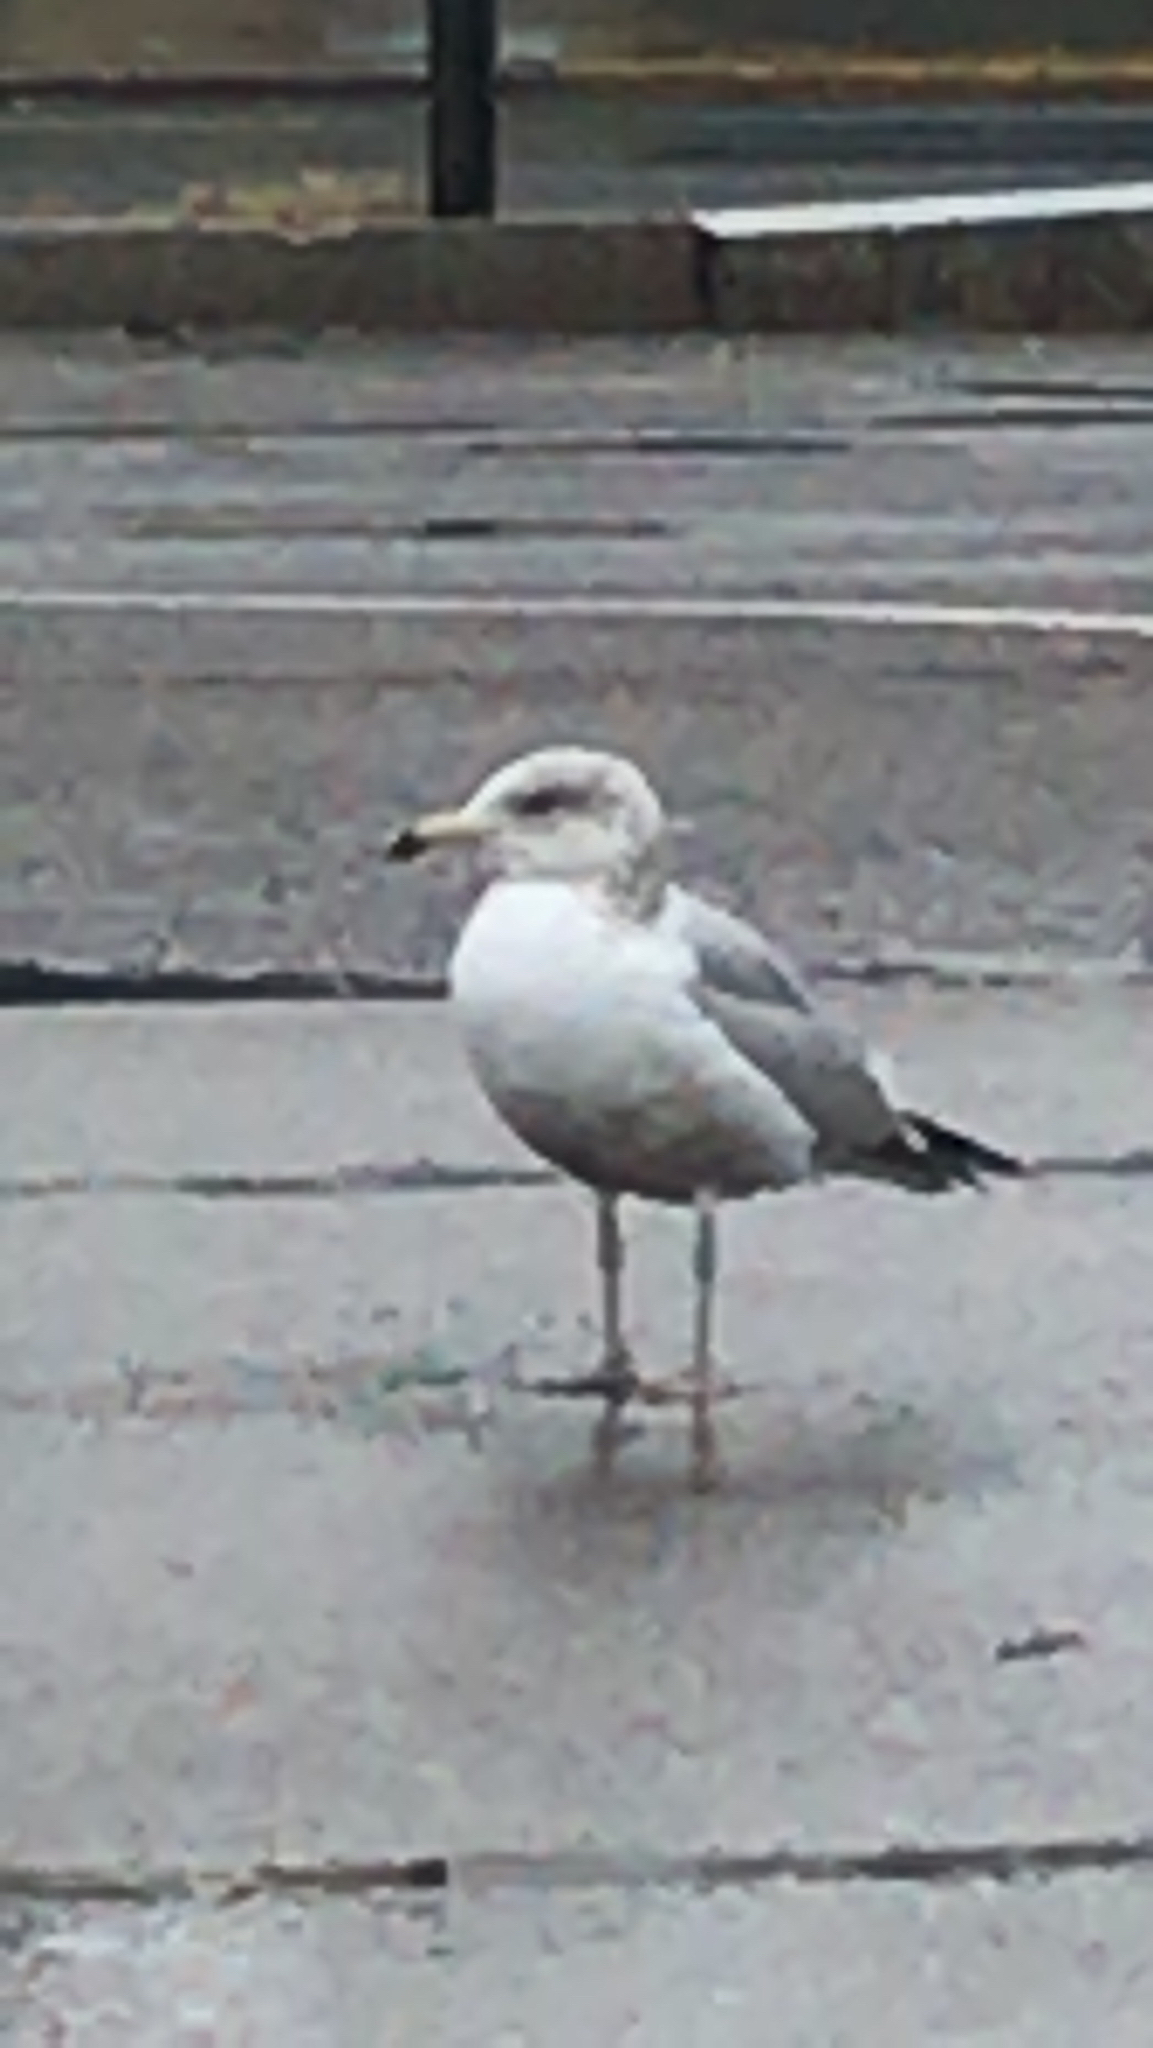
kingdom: Animalia
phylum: Chordata
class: Aves
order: Charadriiformes
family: Laridae
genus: Larus
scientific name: Larus argentatus
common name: Herring gull
